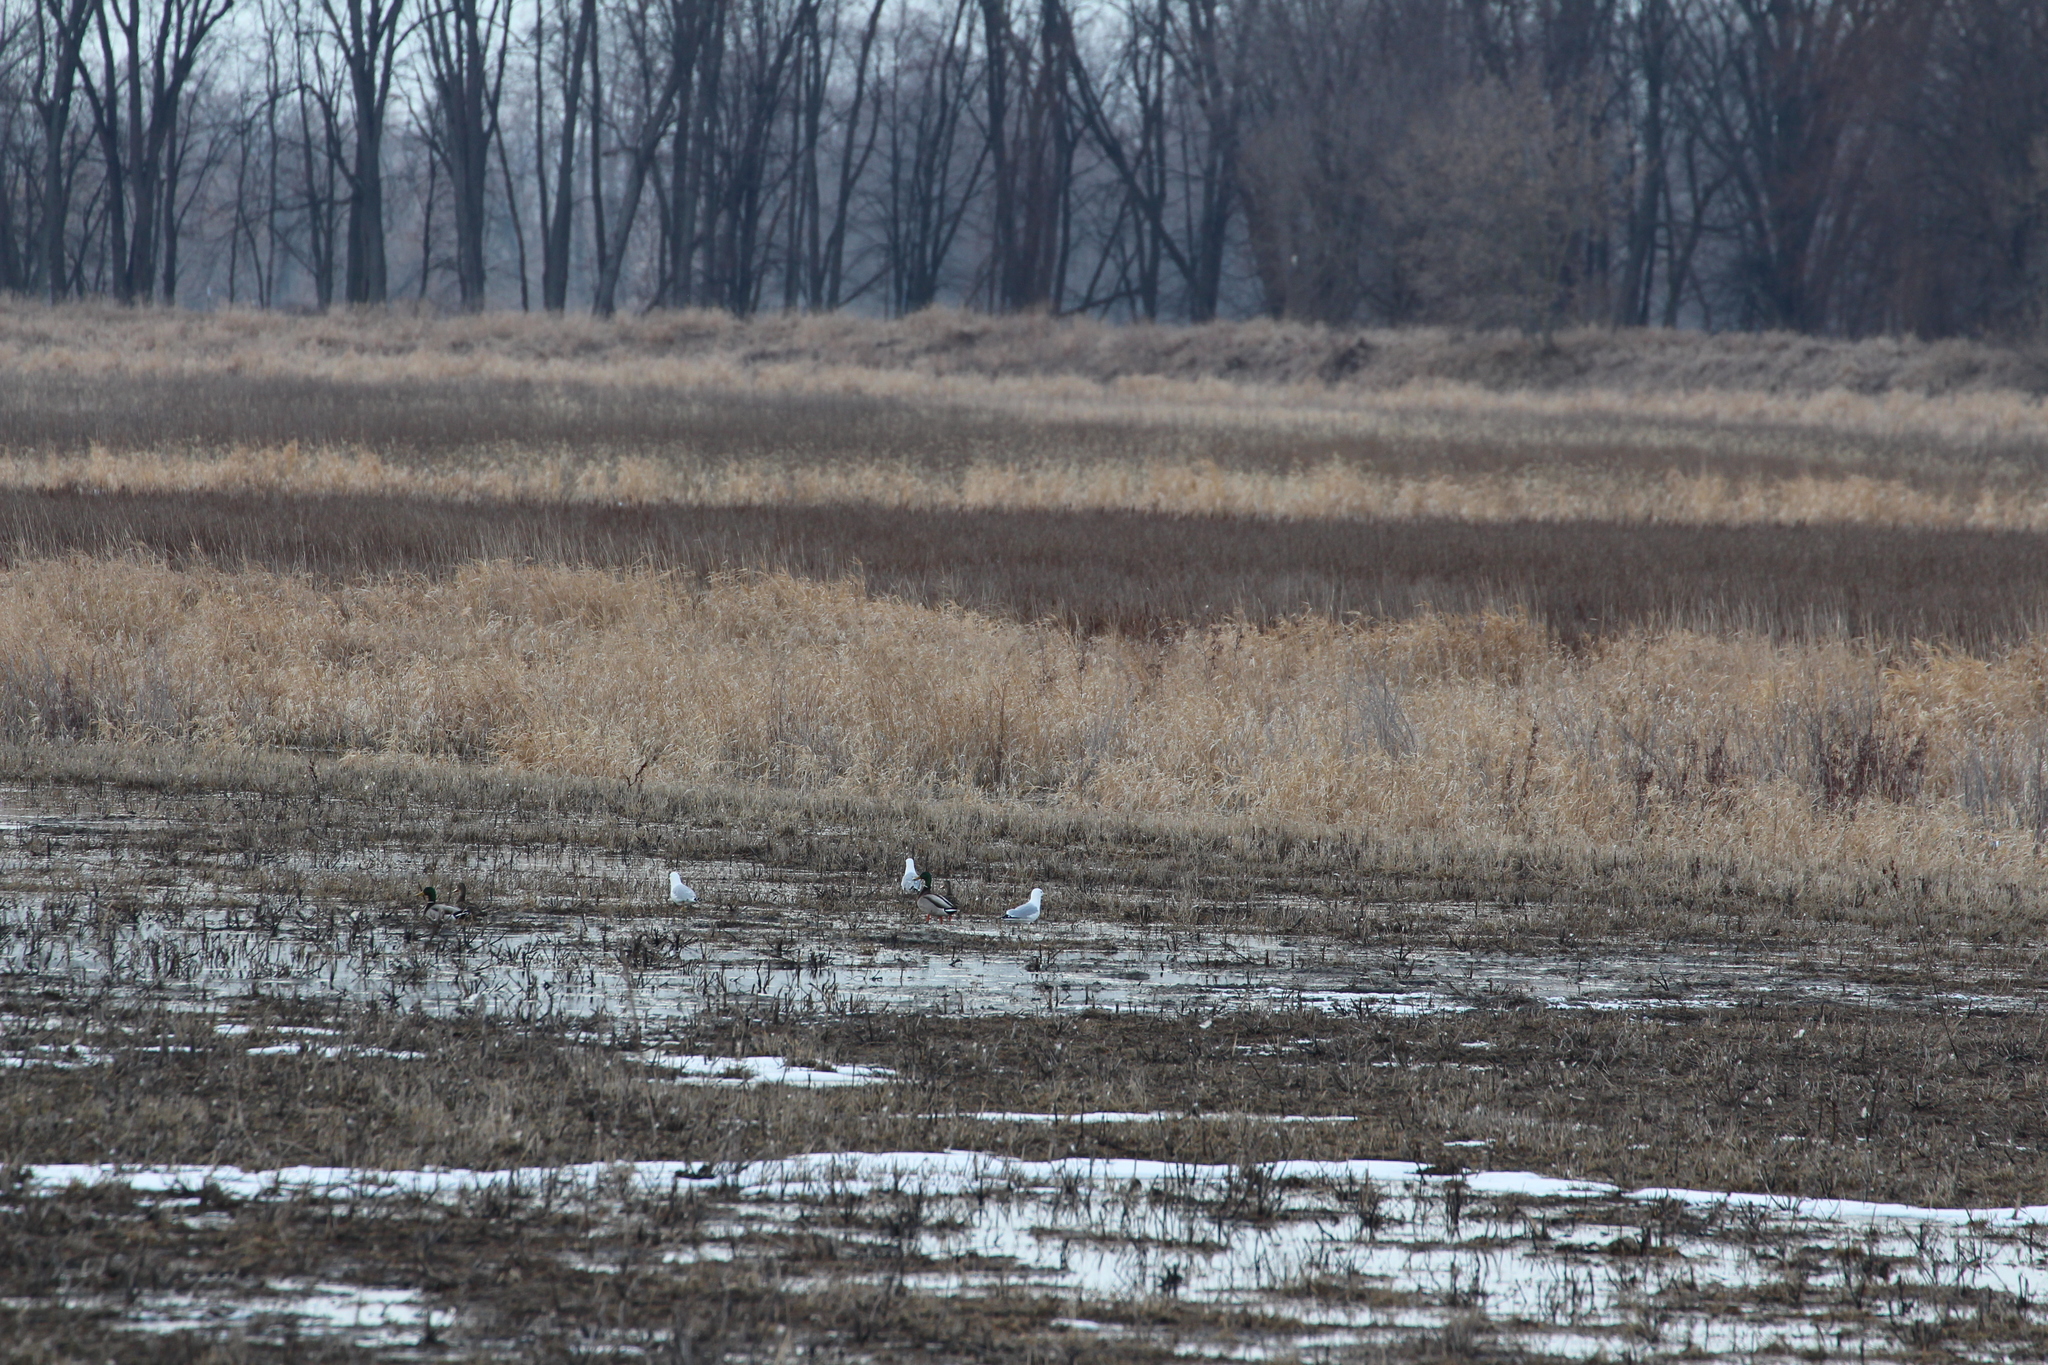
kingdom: Animalia
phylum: Chordata
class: Aves
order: Charadriiformes
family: Laridae
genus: Larus
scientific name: Larus delawarensis
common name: Ring-billed gull
